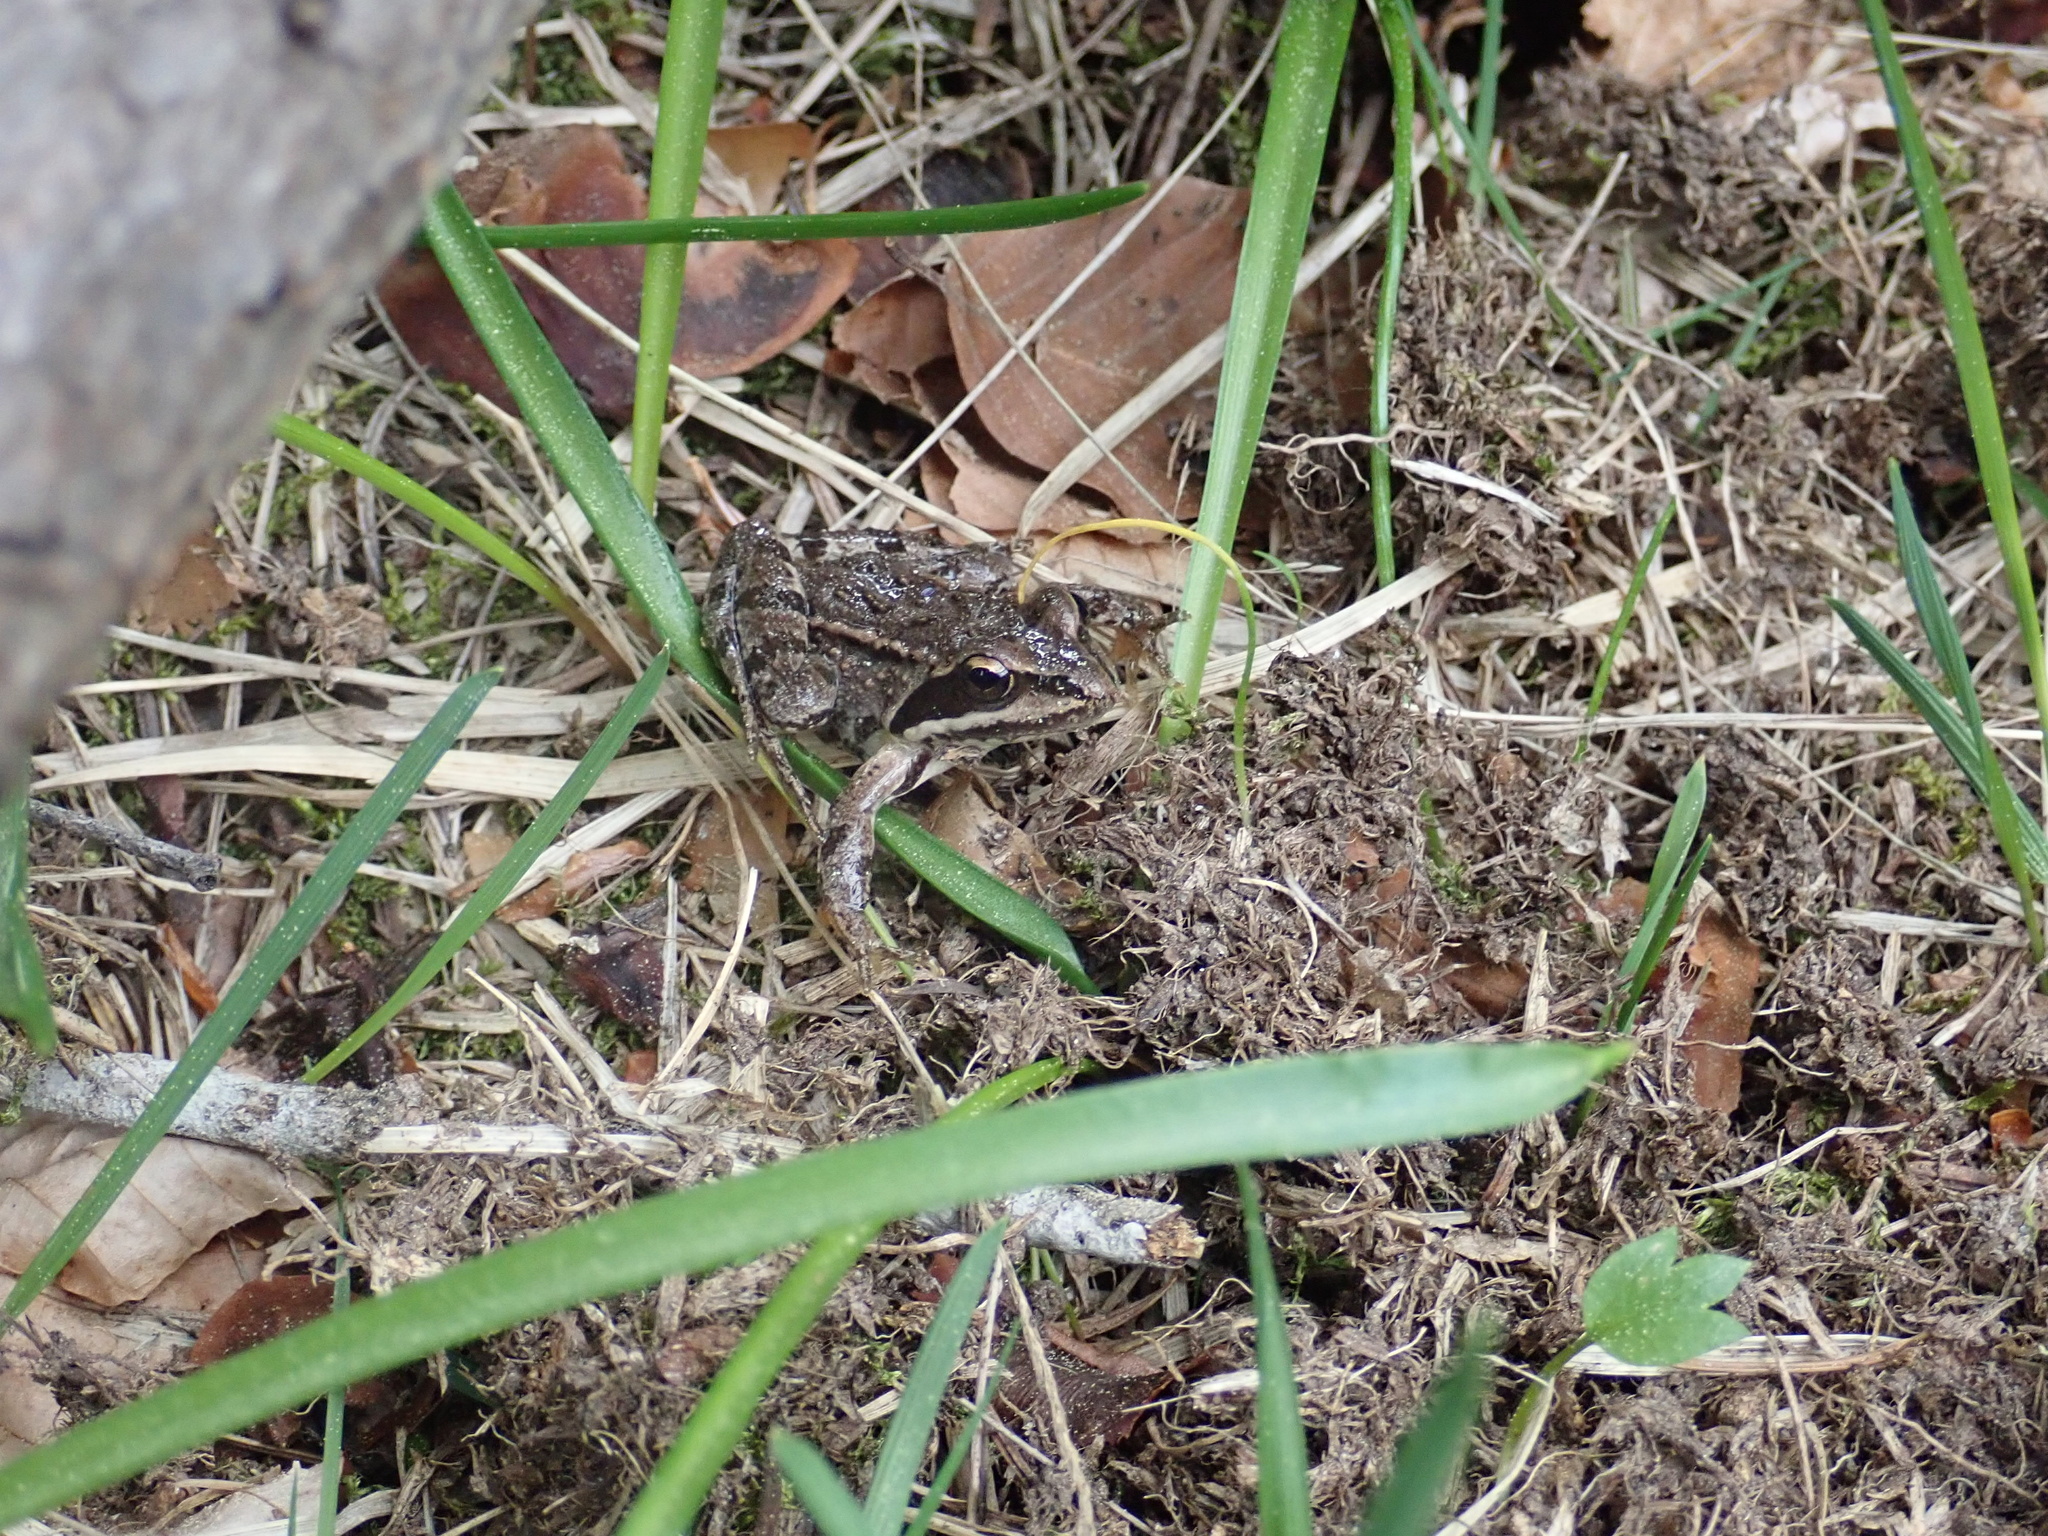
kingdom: Animalia
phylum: Chordata
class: Amphibia
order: Anura
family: Ranidae
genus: Rana
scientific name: Rana macrocnemis
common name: Banded frog
